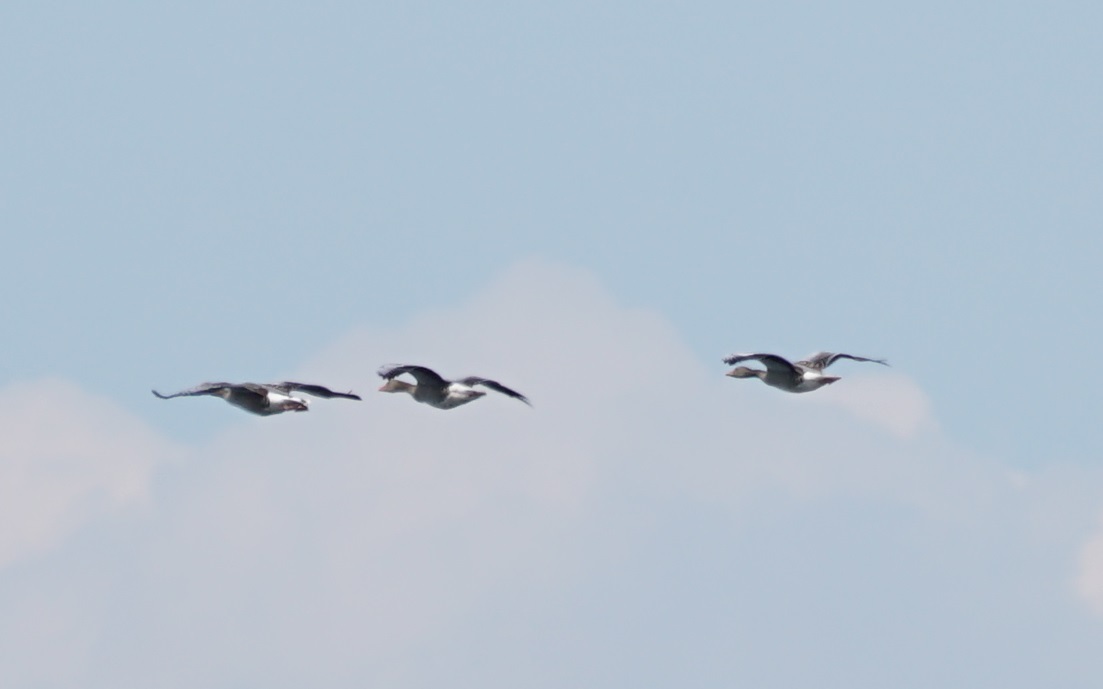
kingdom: Animalia
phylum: Chordata
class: Aves
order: Anseriformes
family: Anatidae
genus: Anser
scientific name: Anser anser
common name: Greylag goose
